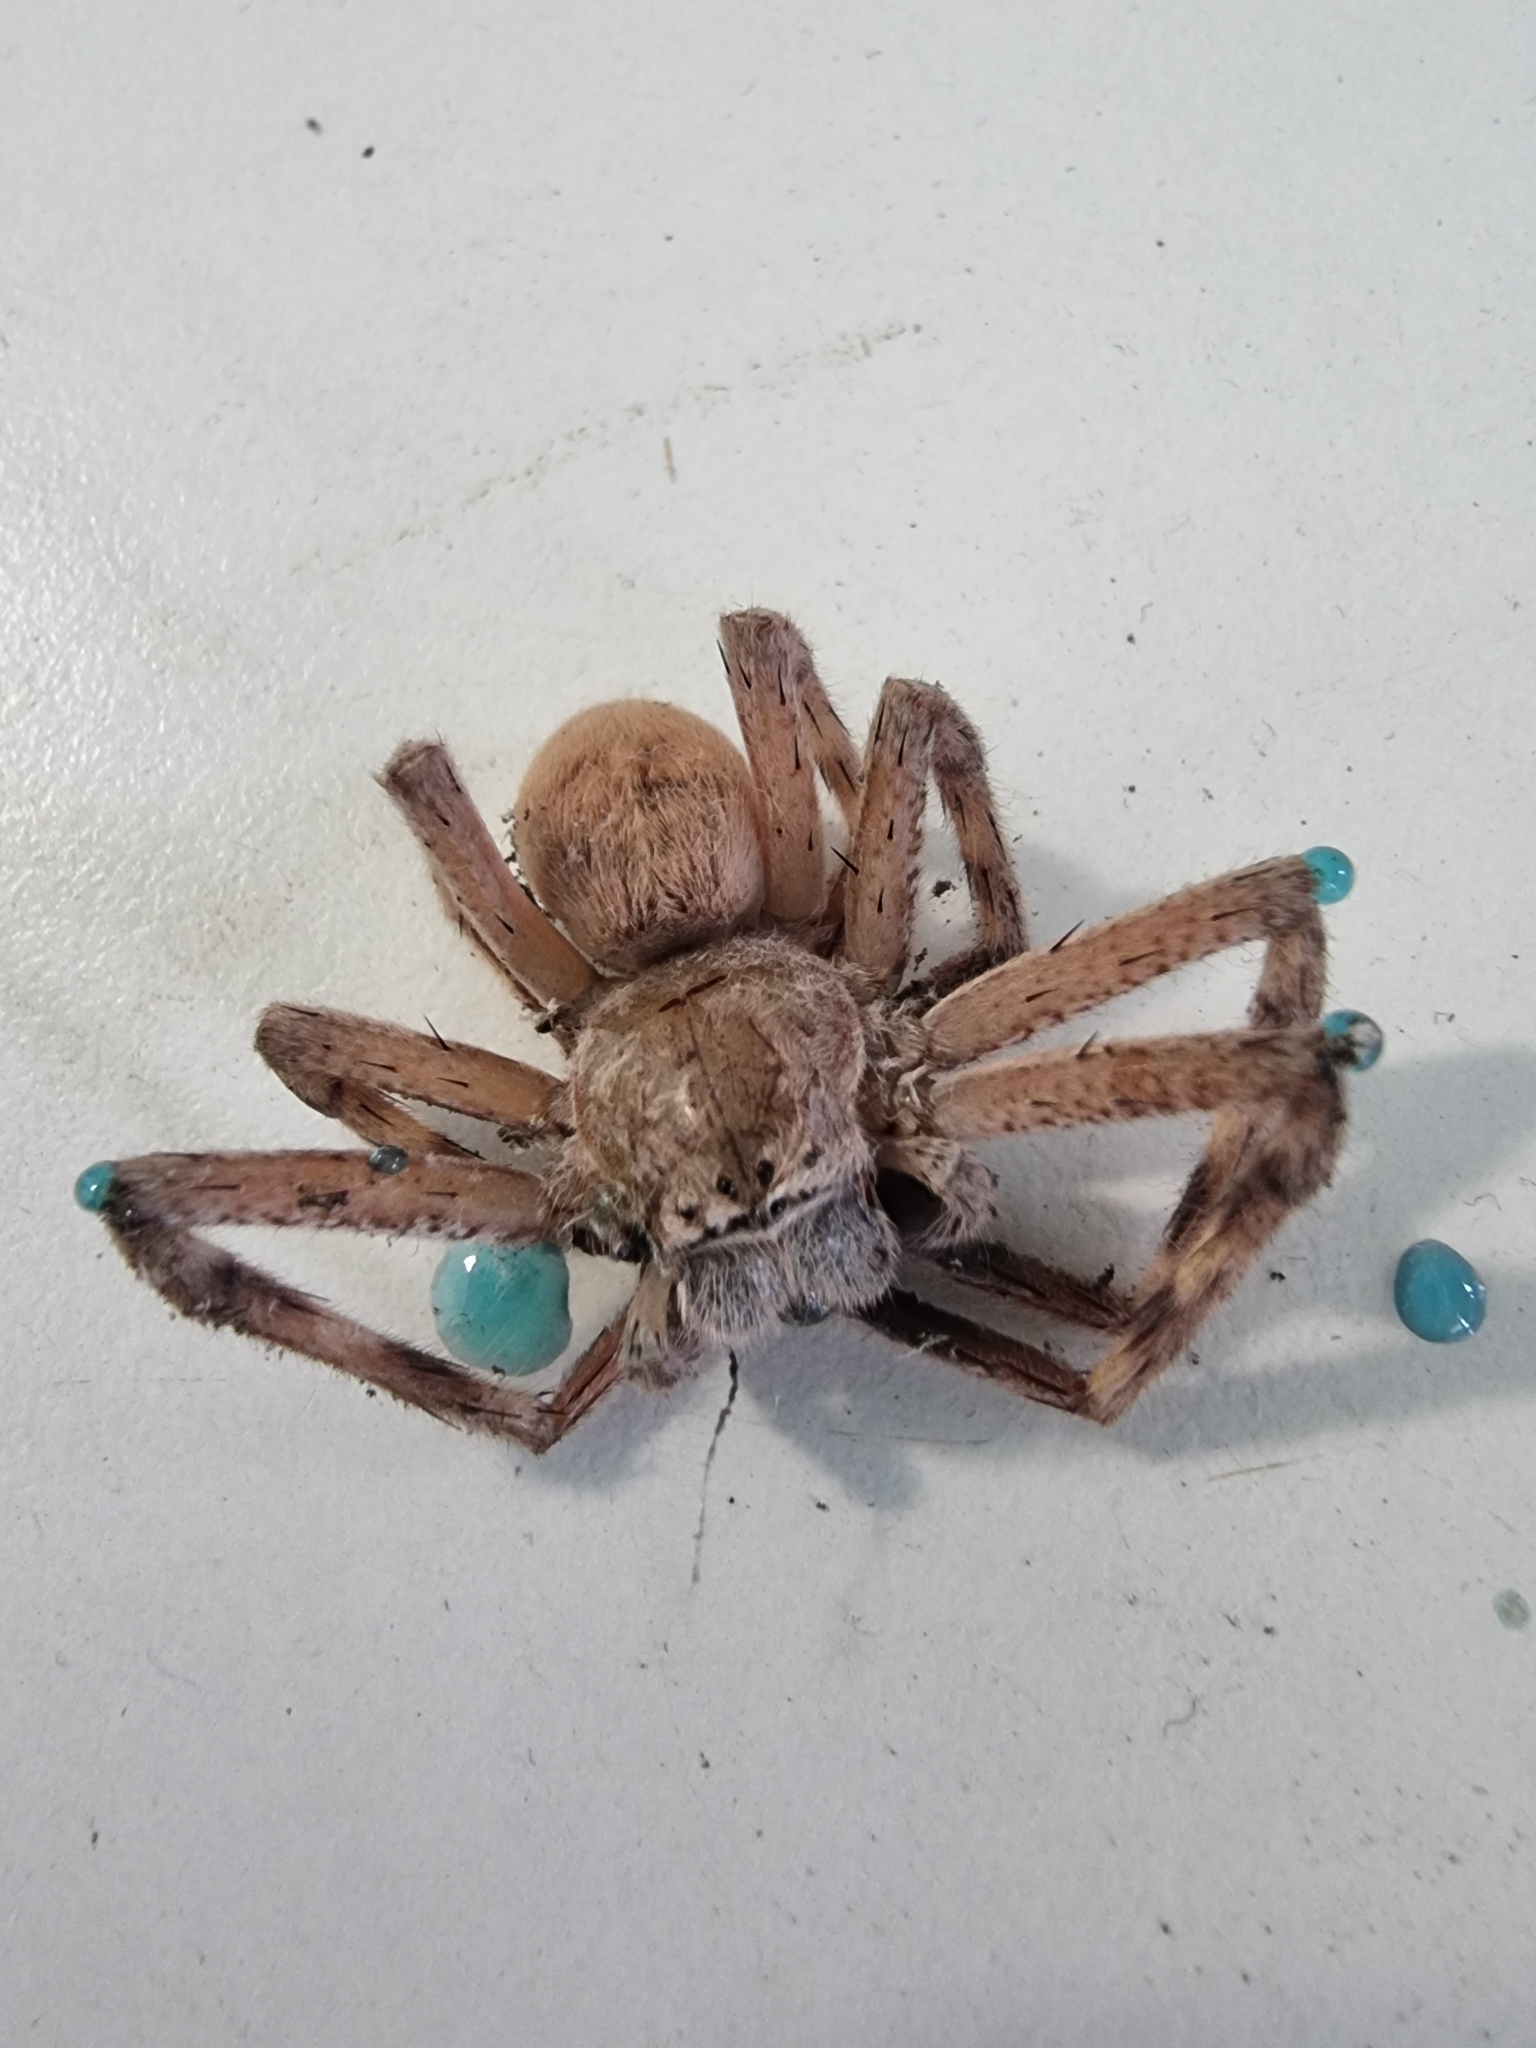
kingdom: Animalia
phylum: Arthropoda
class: Arachnida
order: Araneae
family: Sparassidae
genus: Neosparassus
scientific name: Neosparassus magareyi
